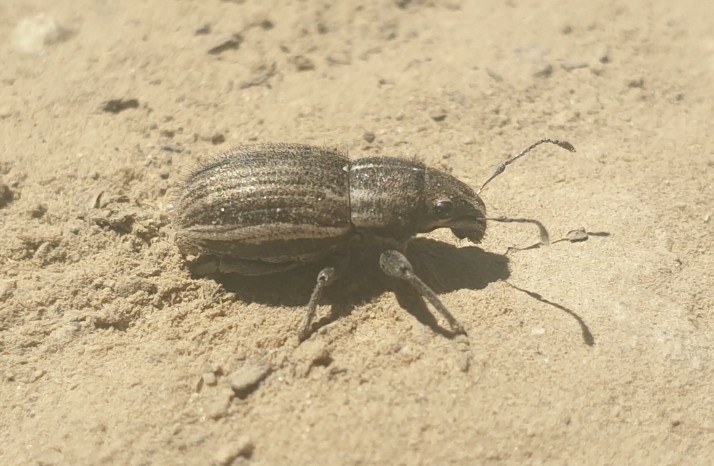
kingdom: Animalia
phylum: Arthropoda
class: Insecta
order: Coleoptera
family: Curculionidae
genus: Naupactus
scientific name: Naupactus leucoloma
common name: Whitefringed beetle
